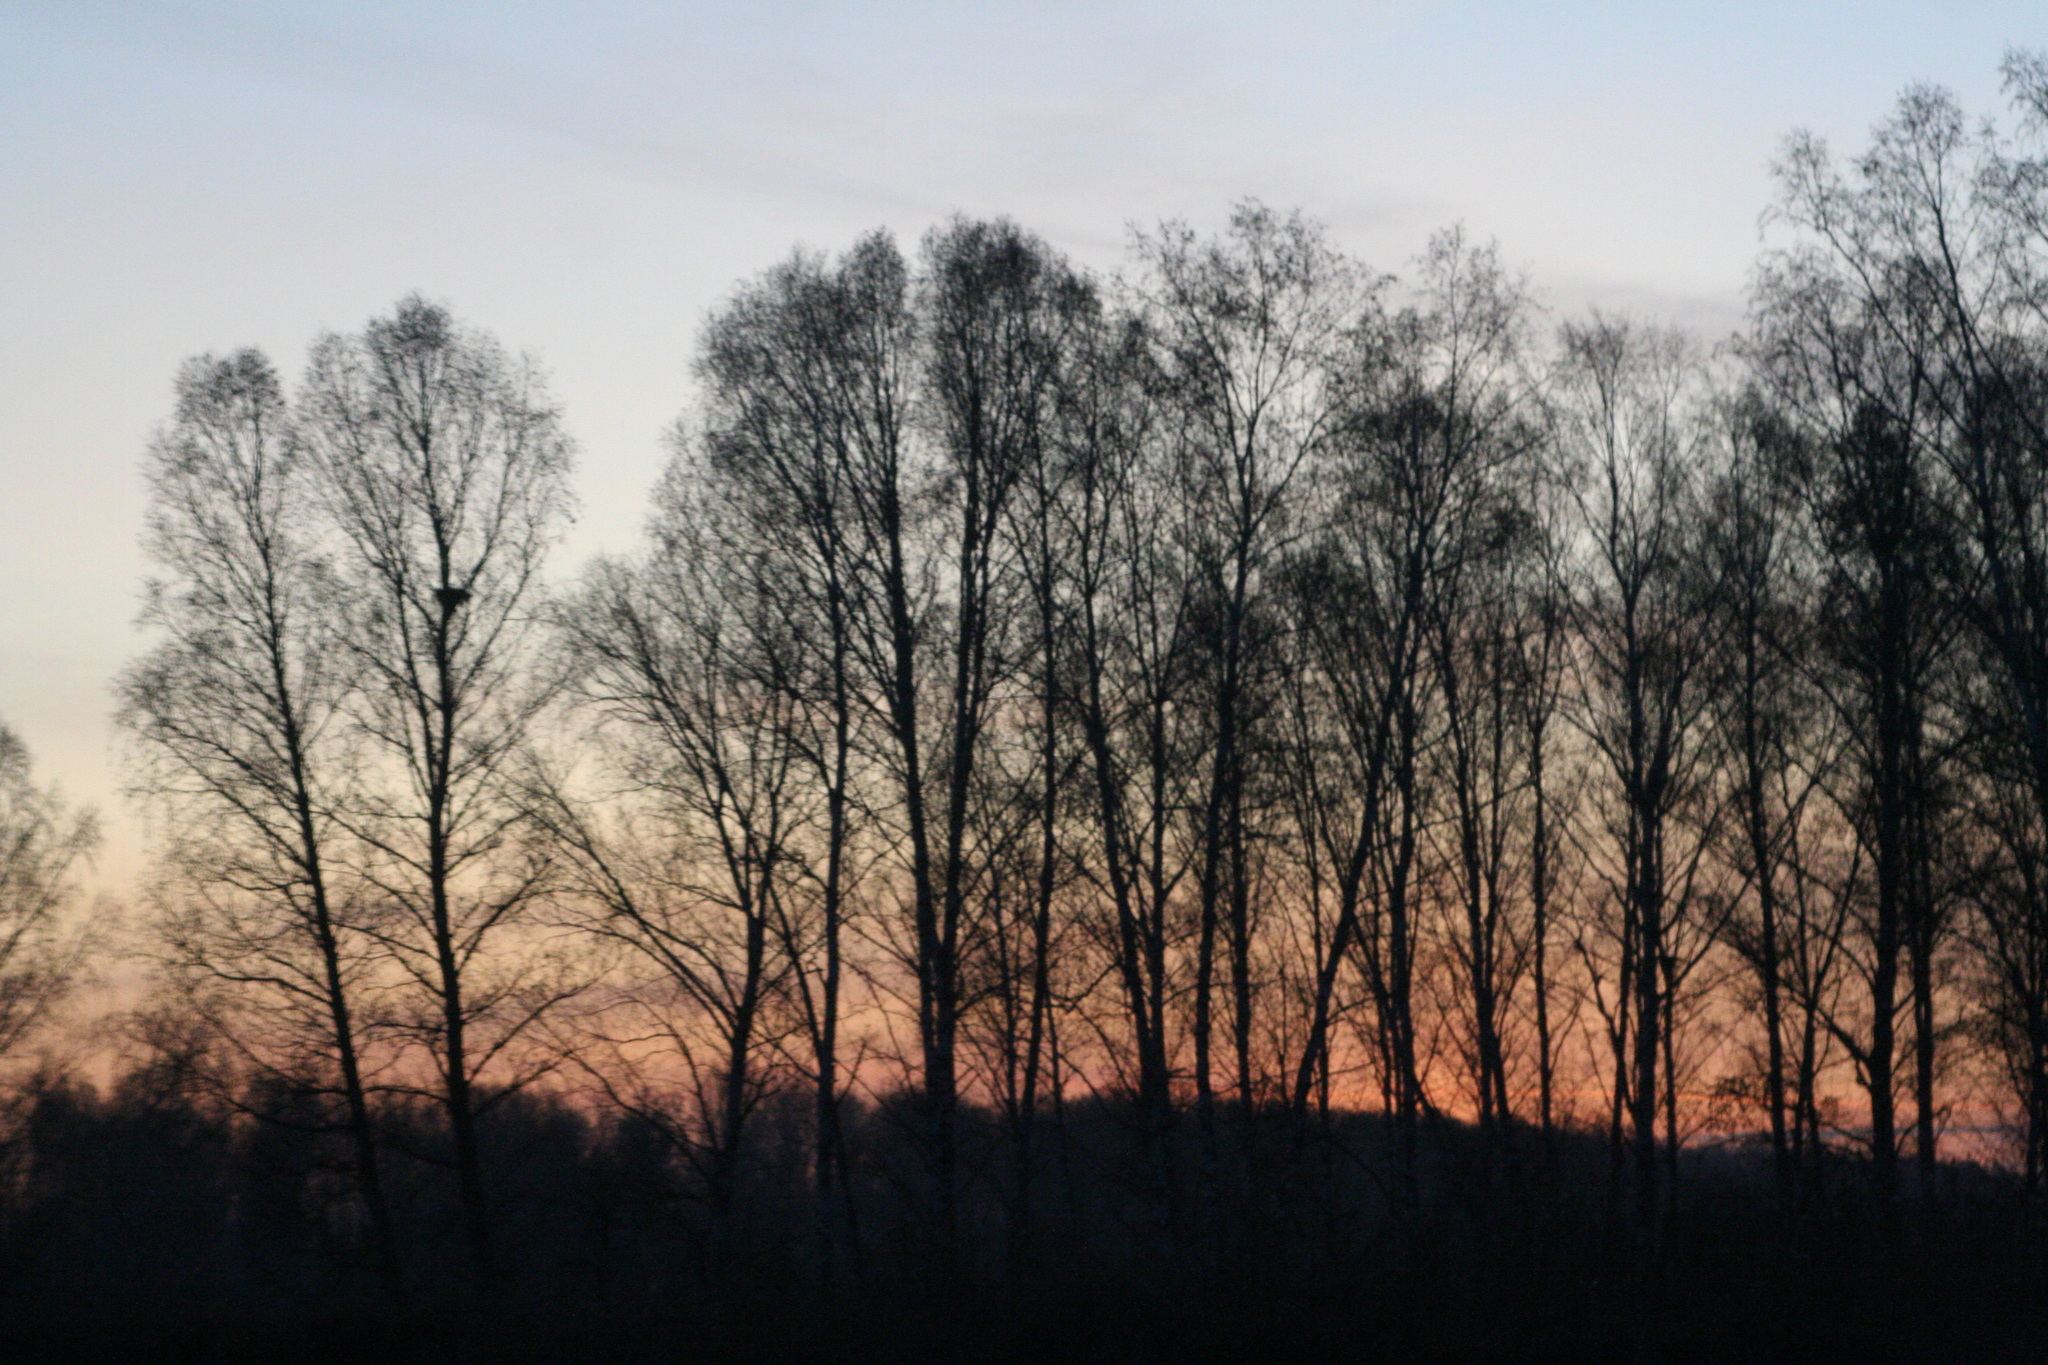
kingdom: Plantae
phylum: Tracheophyta
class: Magnoliopsida
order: Fagales
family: Betulaceae
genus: Betula
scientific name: Betula pendula
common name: Silver birch
